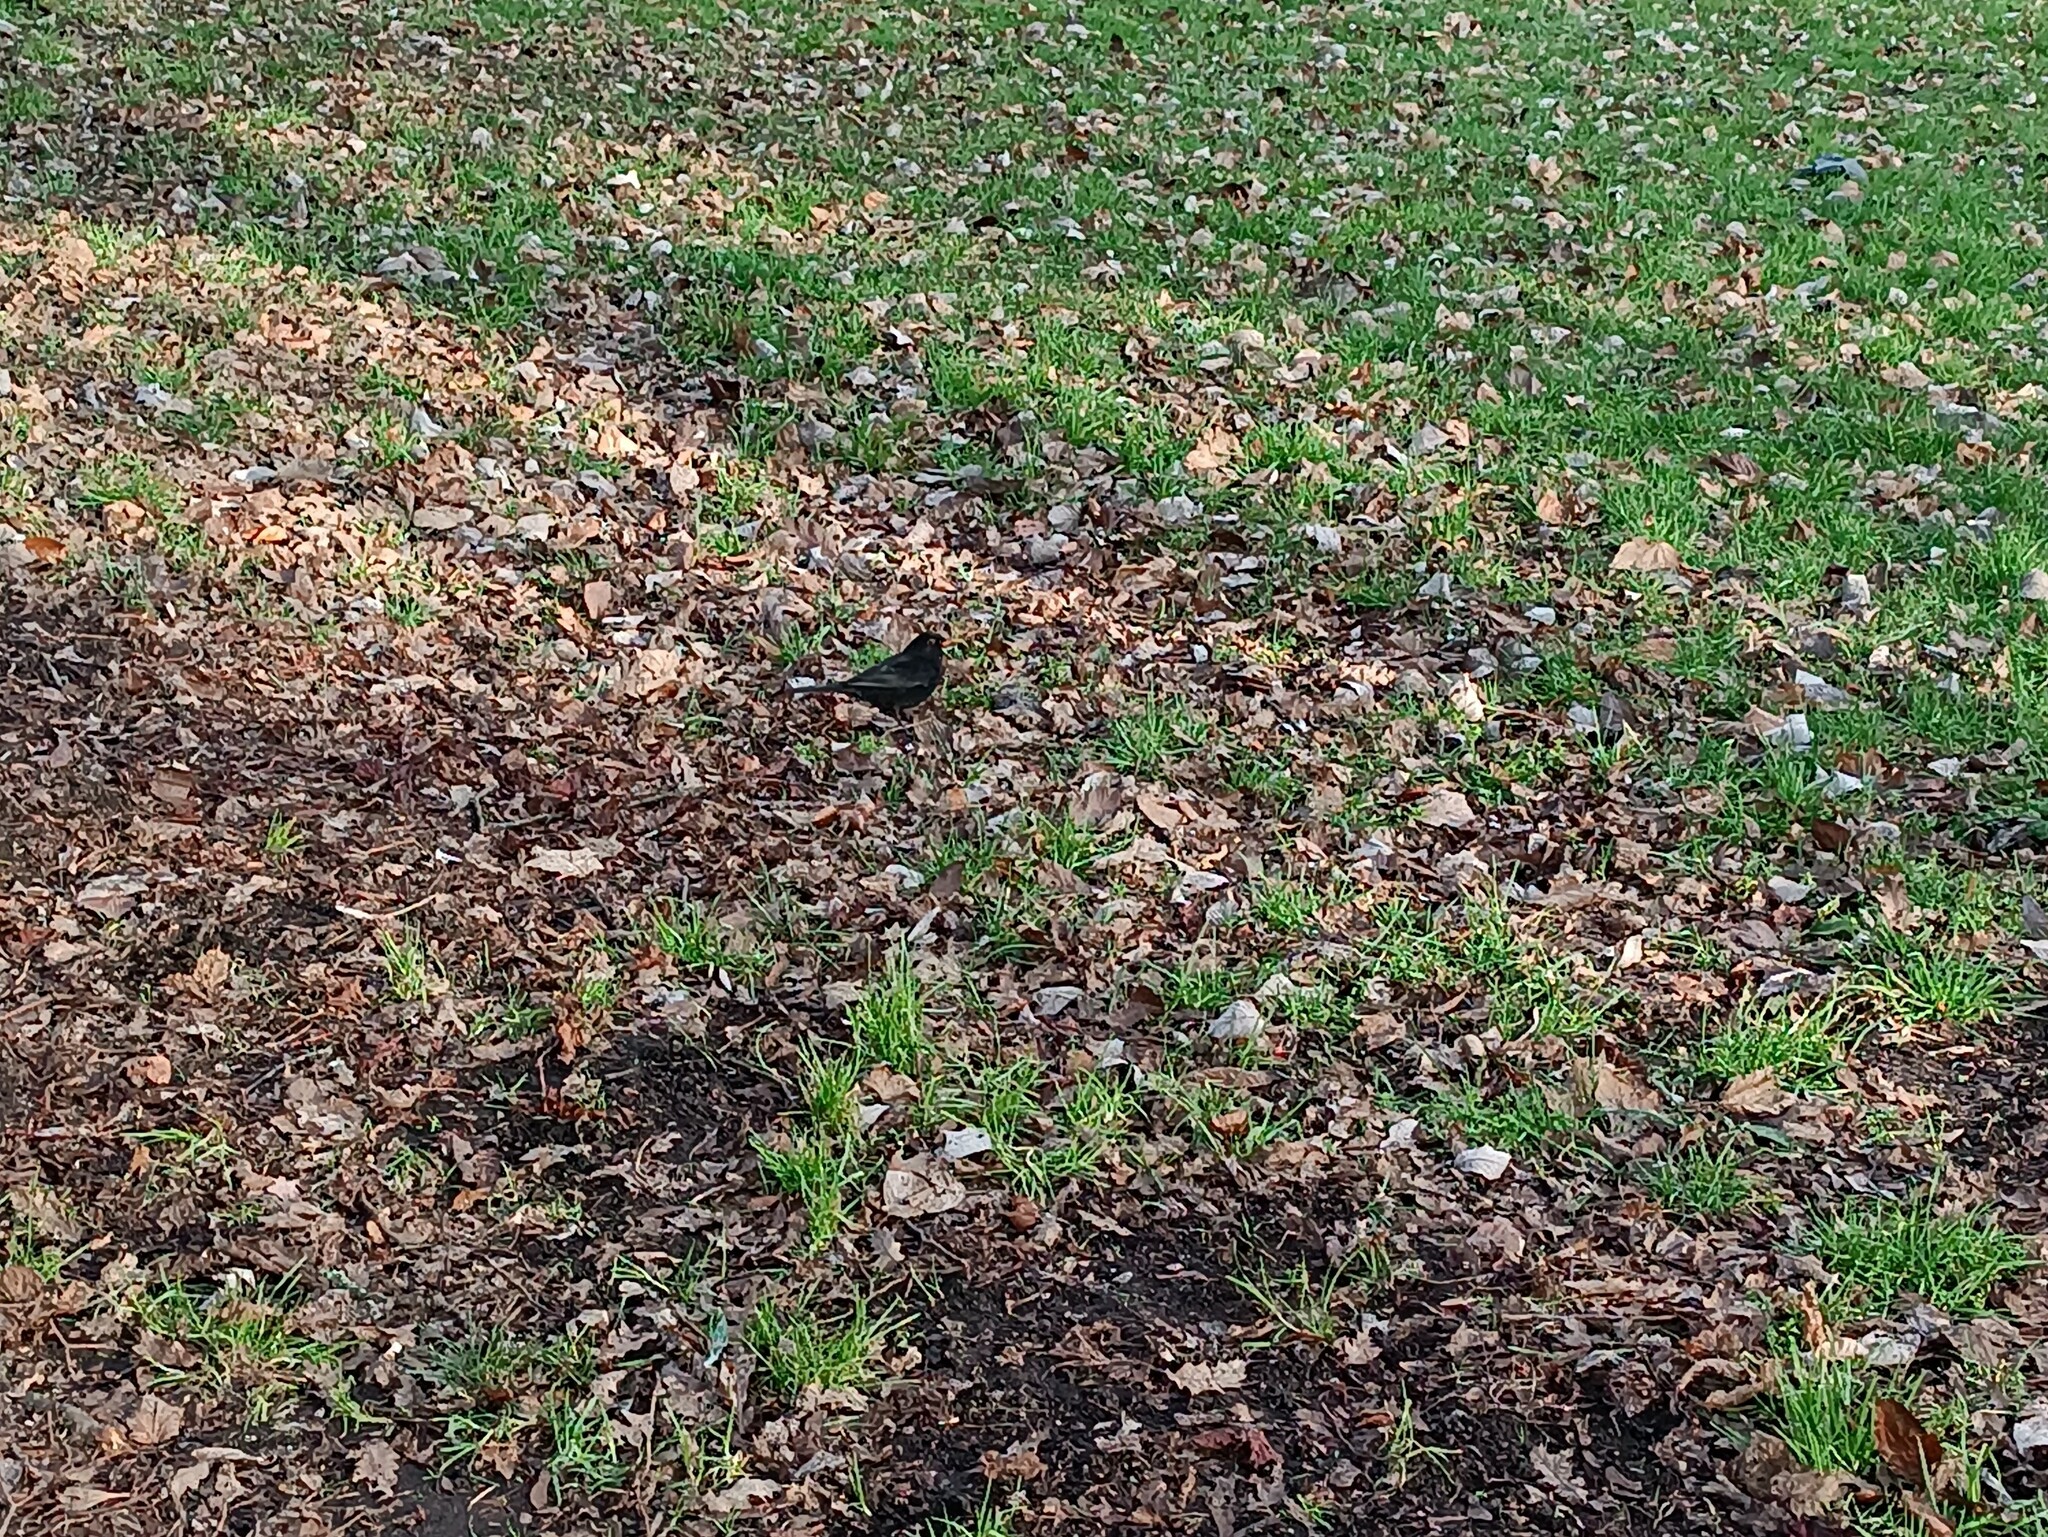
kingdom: Animalia
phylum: Chordata
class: Aves
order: Passeriformes
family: Turdidae
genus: Turdus
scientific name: Turdus merula
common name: Common blackbird
